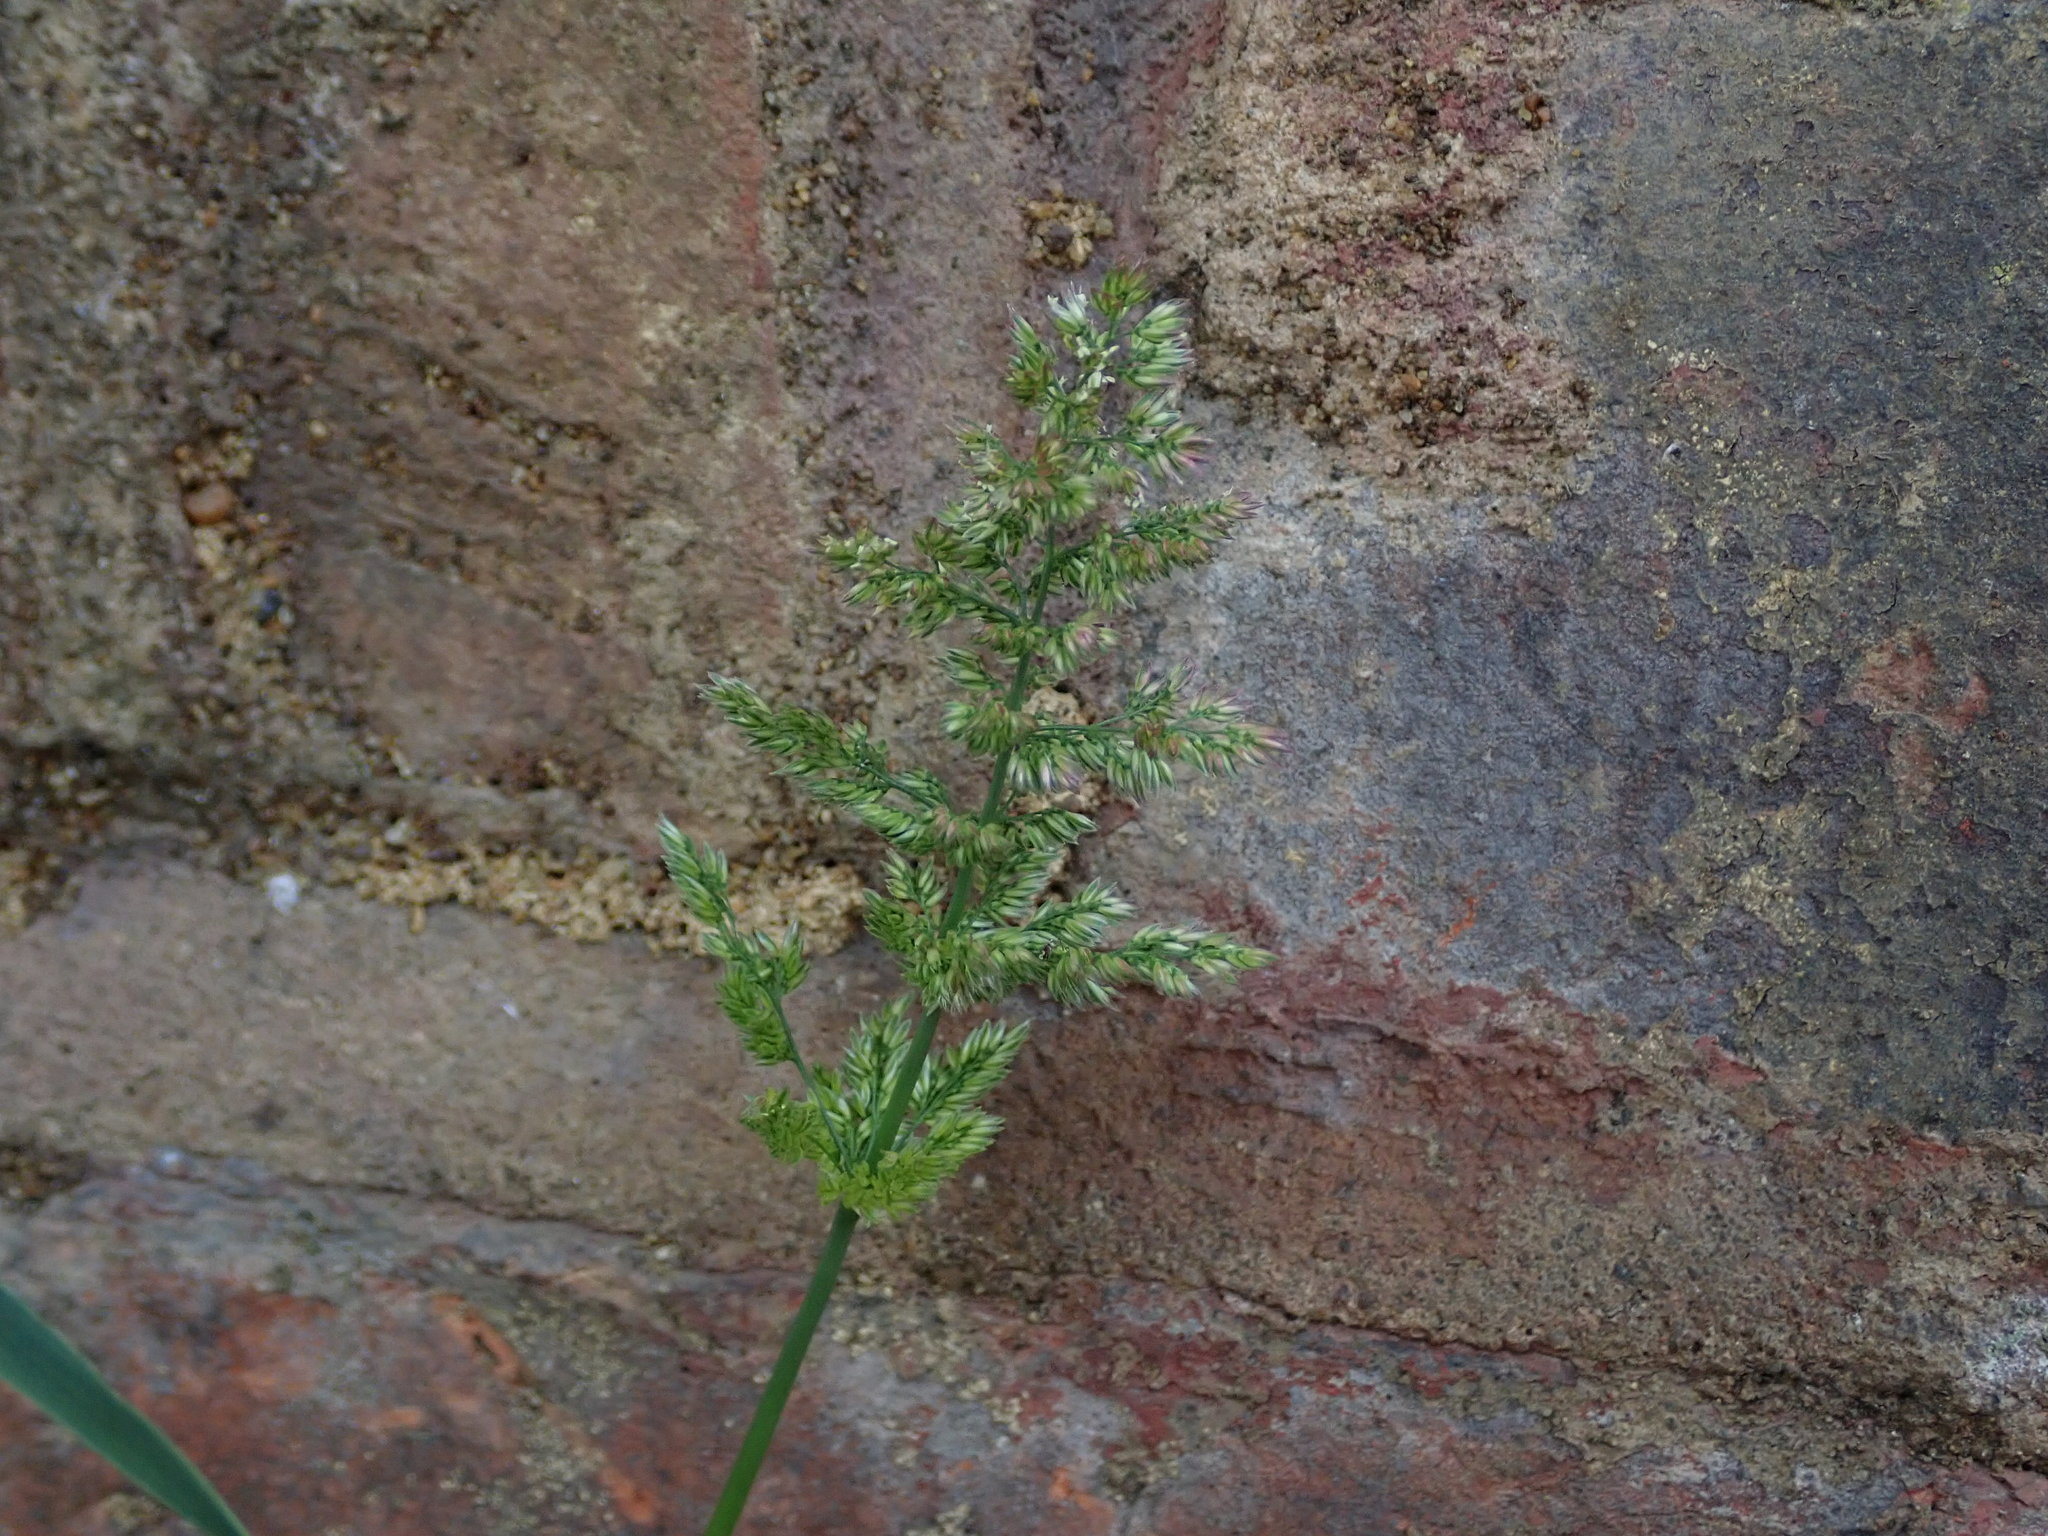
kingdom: Plantae
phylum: Tracheophyta
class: Liliopsida
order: Poales
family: Poaceae
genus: Polypogon
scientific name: Polypogon viridis
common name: Water bent
